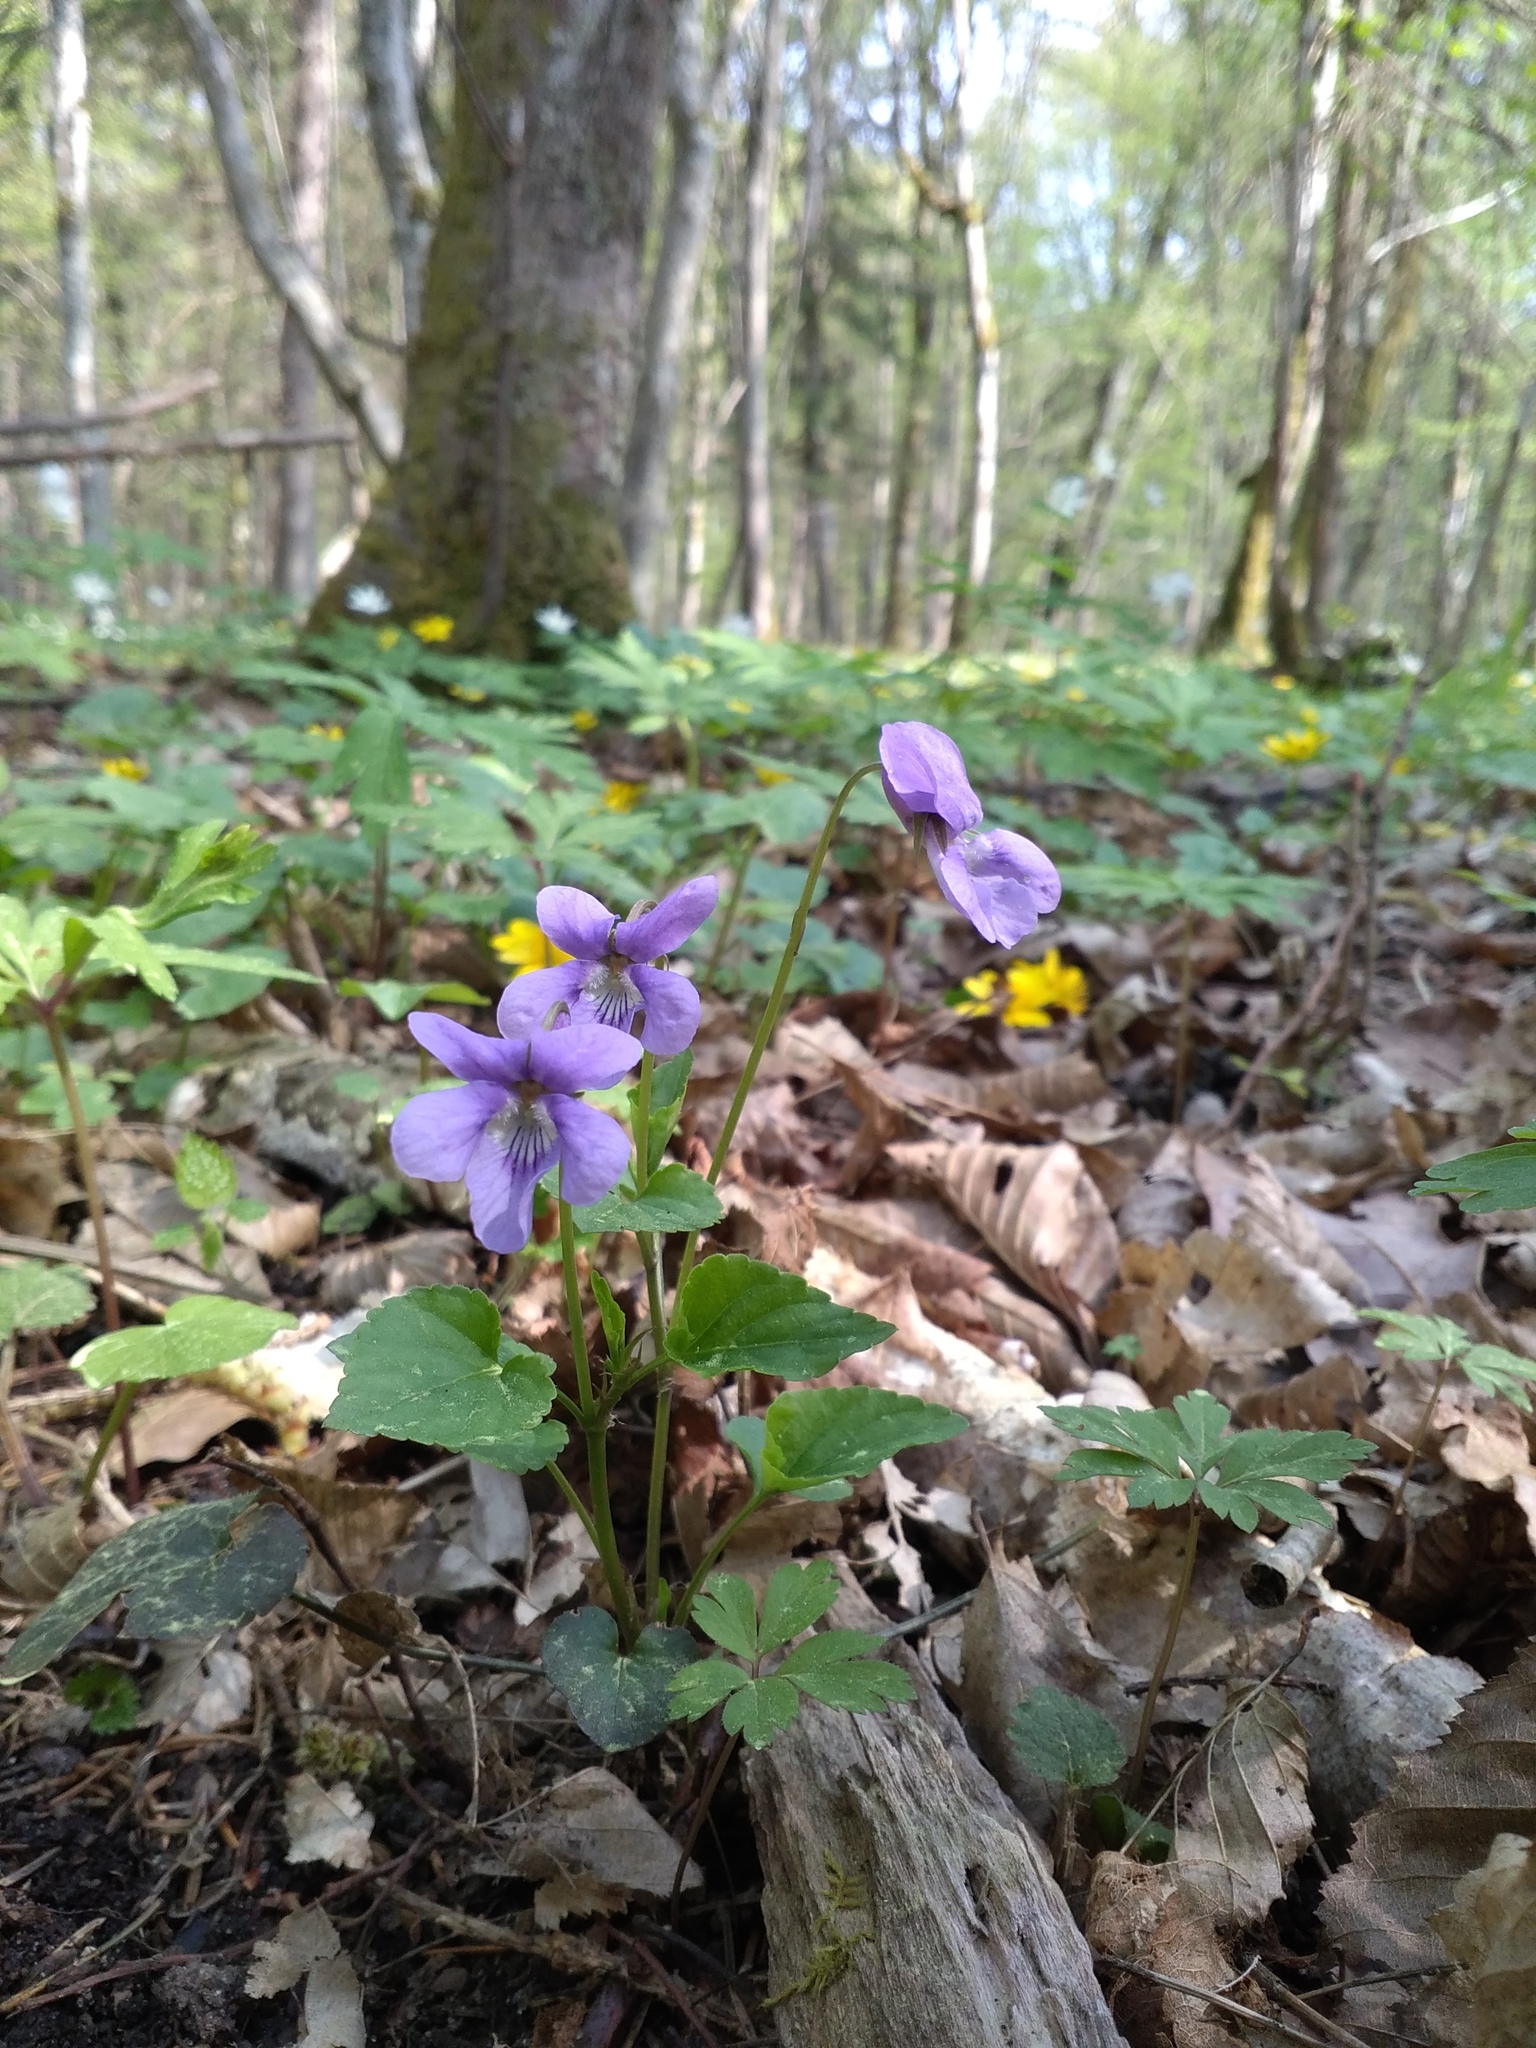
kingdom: Plantae
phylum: Tracheophyta
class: Magnoliopsida
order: Malpighiales
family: Violaceae
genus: Viola
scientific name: Viola reichenbachiana
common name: Early dog-violet
